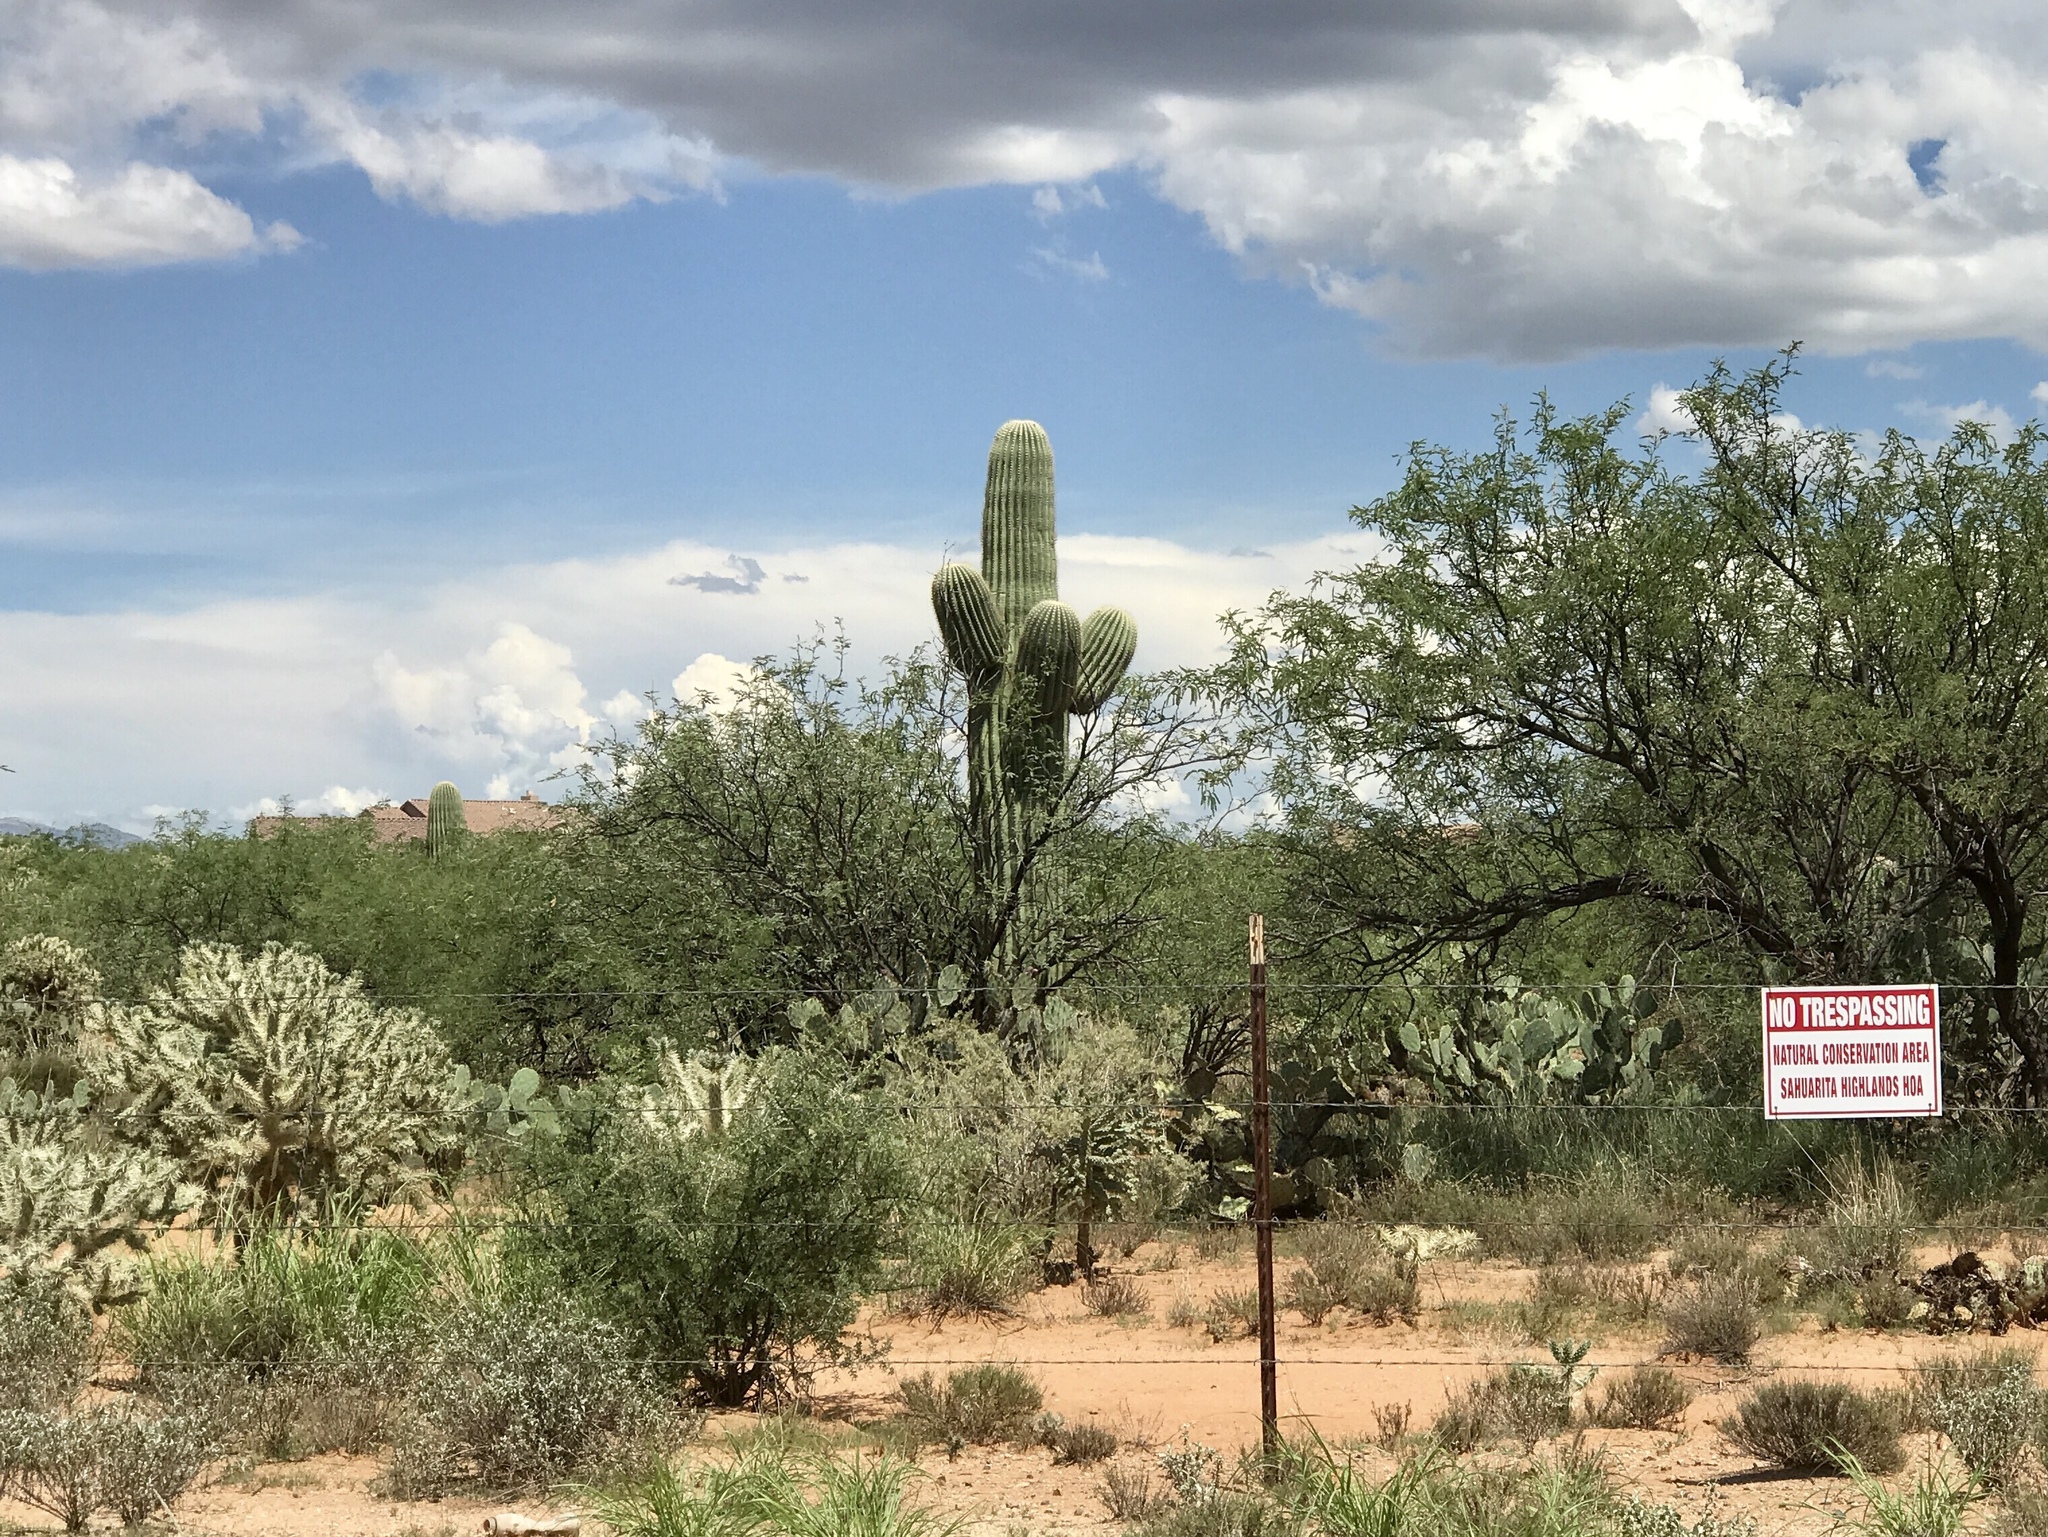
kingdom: Plantae
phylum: Tracheophyta
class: Magnoliopsida
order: Caryophyllales
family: Cactaceae
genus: Carnegiea
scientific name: Carnegiea gigantea
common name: Saguaro
